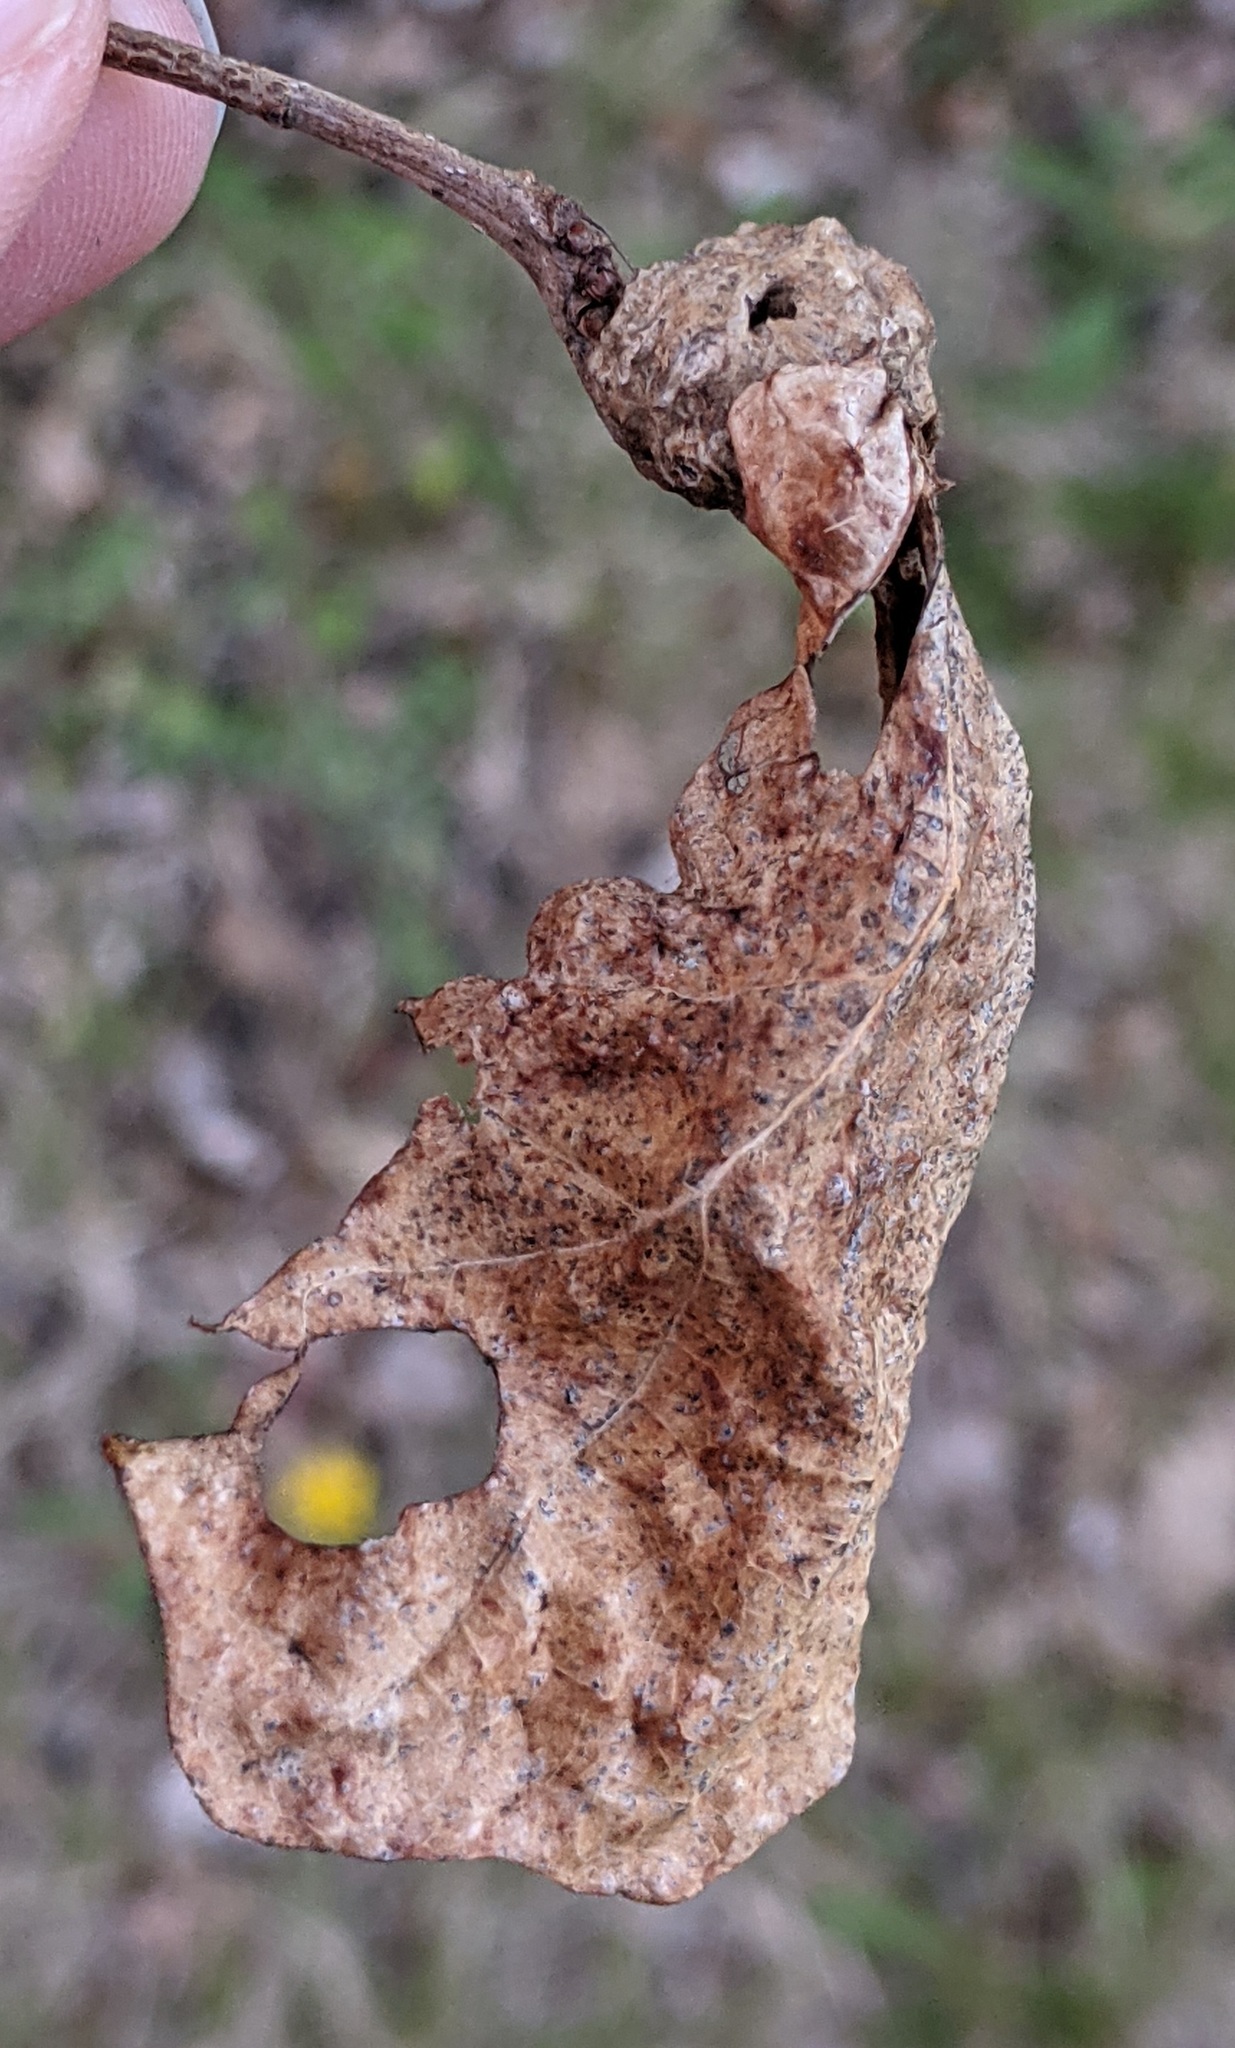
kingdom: Animalia
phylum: Arthropoda
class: Insecta
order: Hymenoptera
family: Cynipidae
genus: Andricus
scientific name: Andricus
